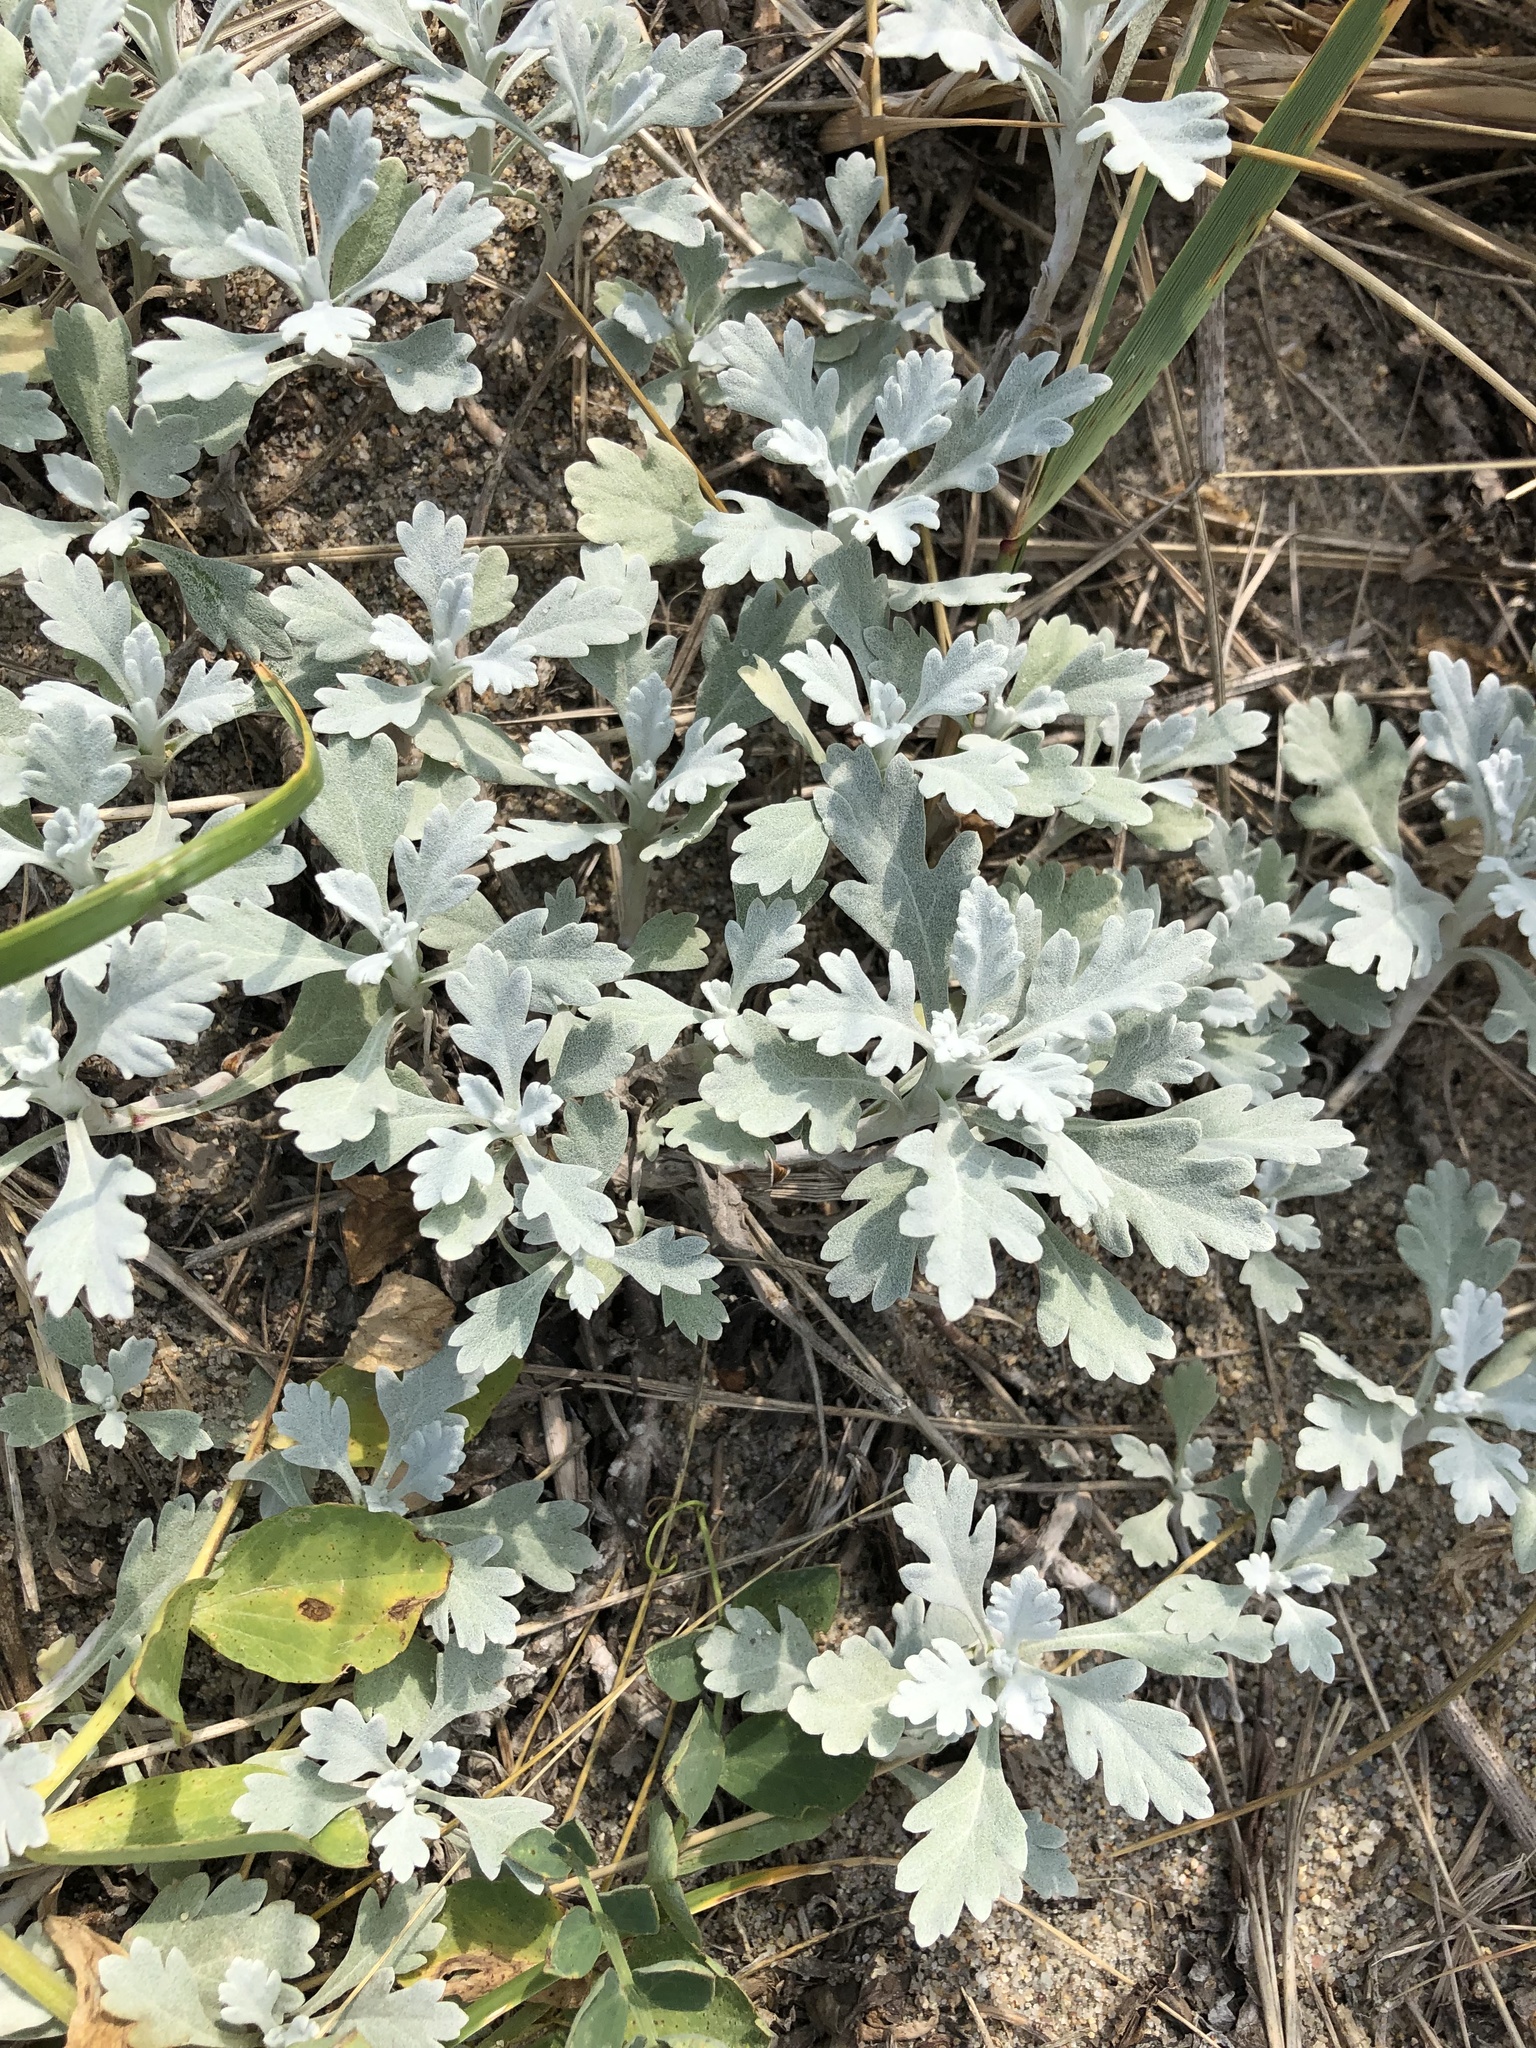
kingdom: Plantae
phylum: Tracheophyta
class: Magnoliopsida
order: Asterales
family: Asteraceae
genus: Artemisia
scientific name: Artemisia stelleriana
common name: Beach wormwood
